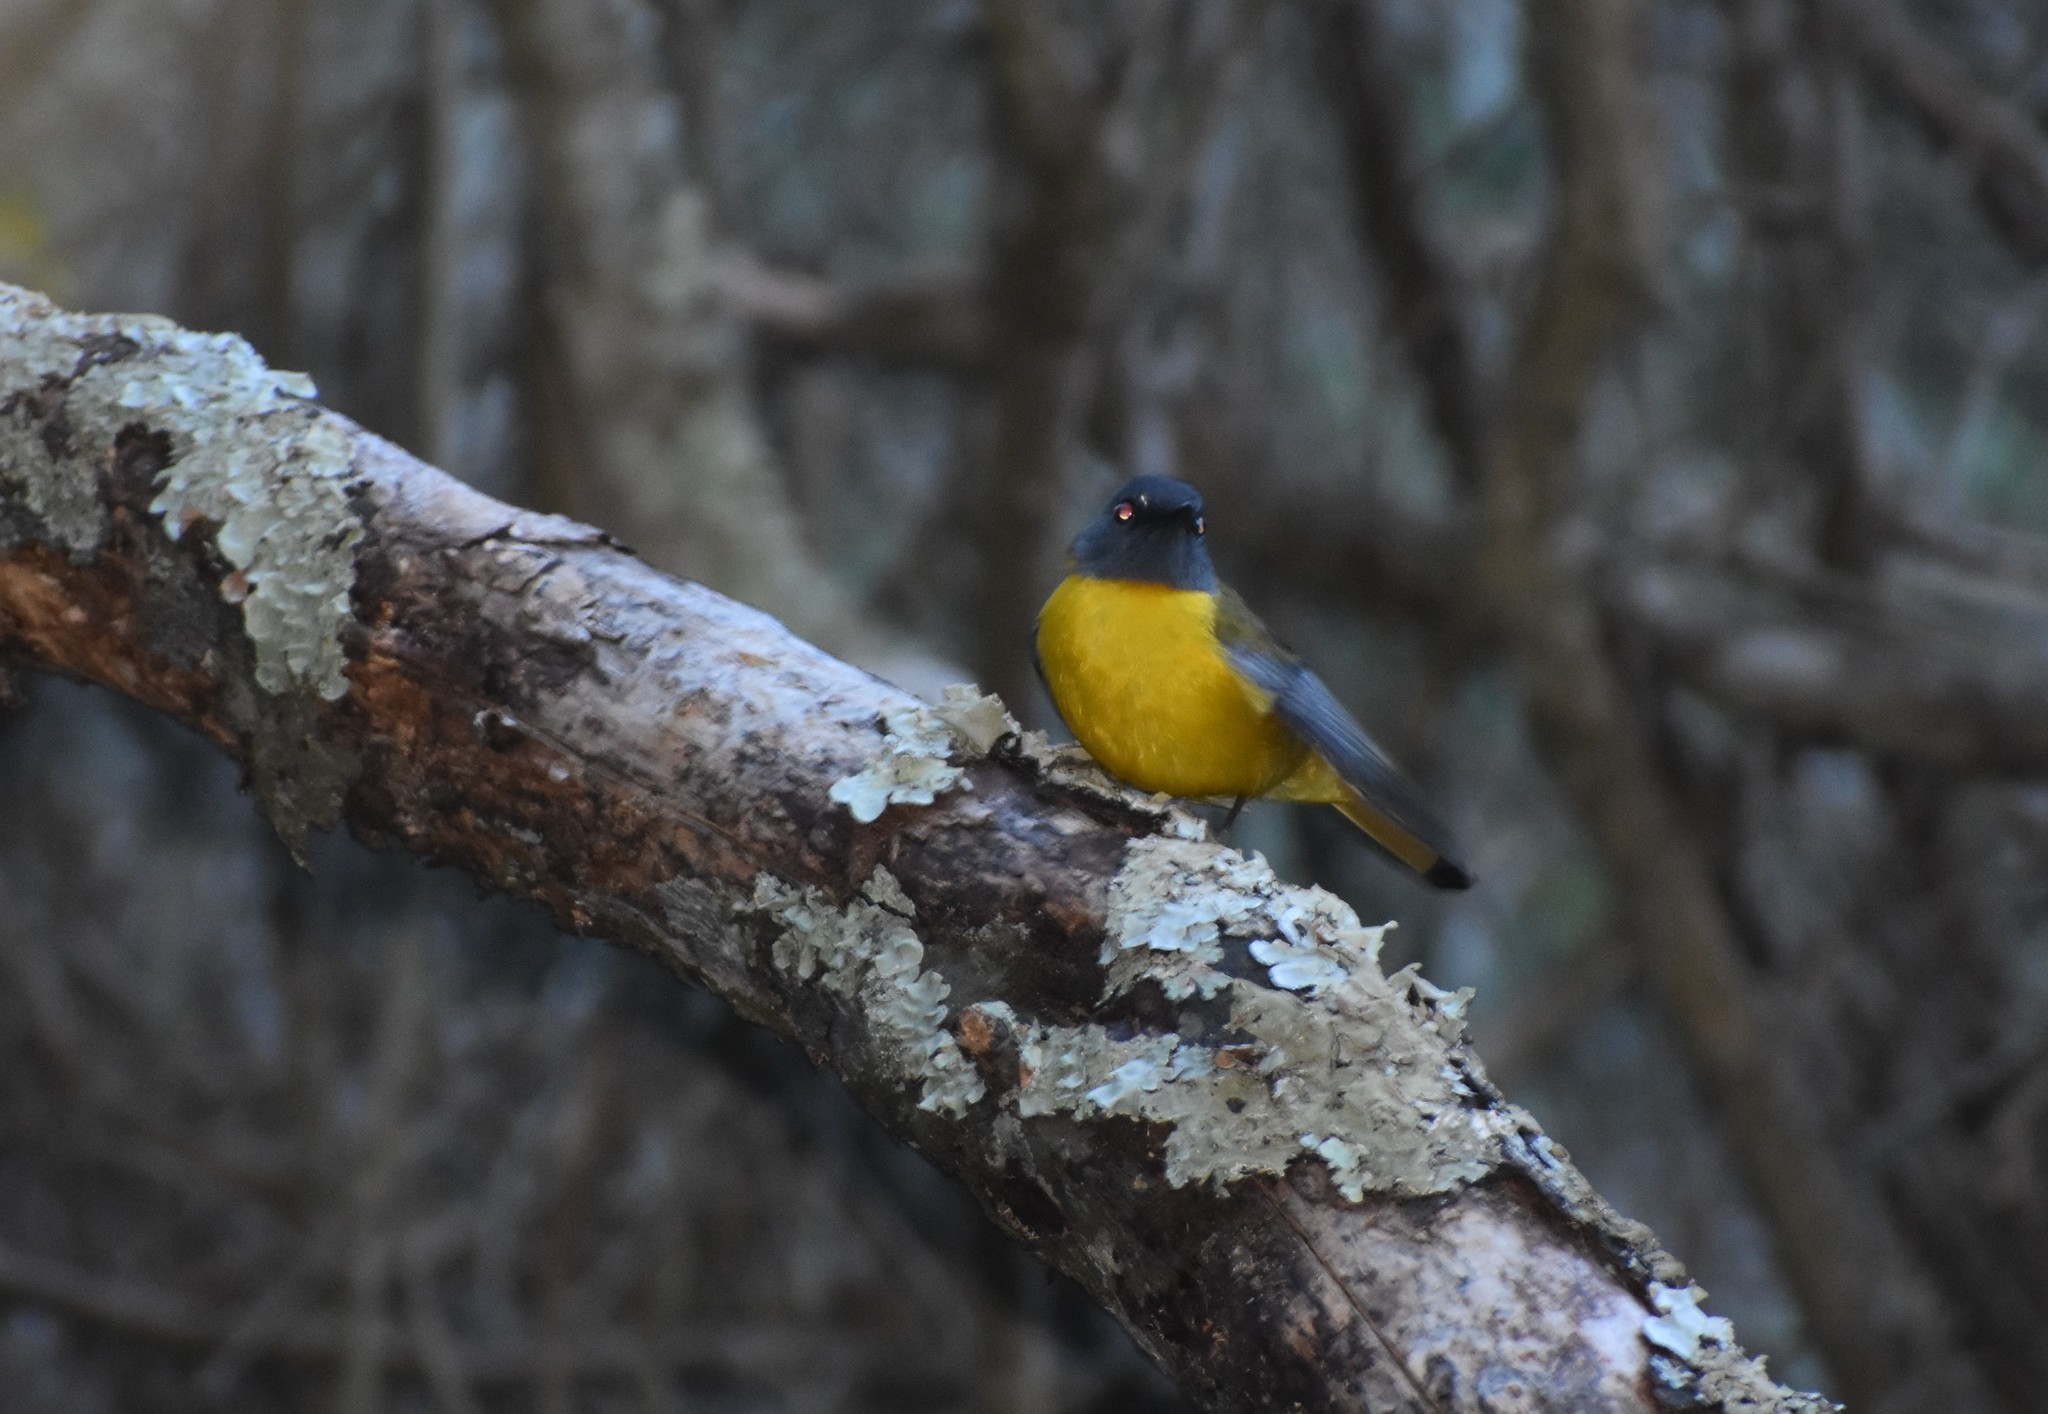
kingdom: Animalia
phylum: Chordata
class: Aves
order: Passeriformes
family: Muscicapidae
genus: Pogonocichla
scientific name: Pogonocichla stellata
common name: White-starred robin
